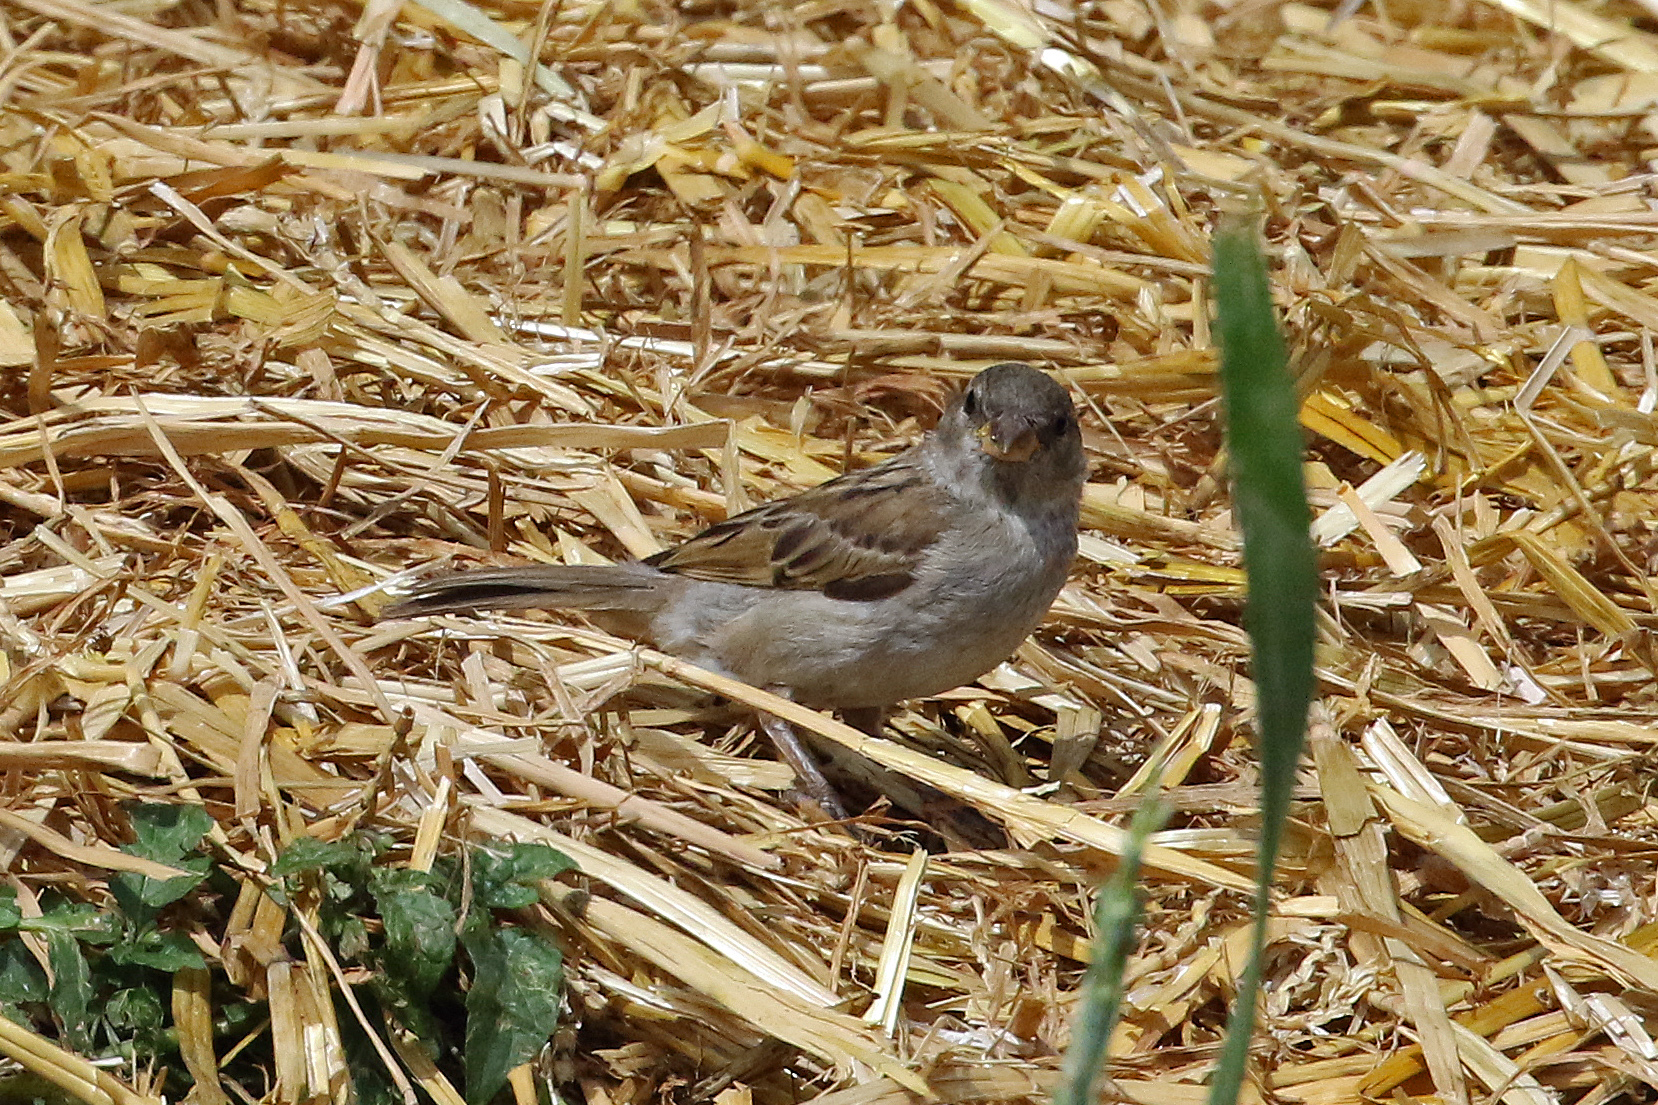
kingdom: Animalia
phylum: Chordata
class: Aves
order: Passeriformes
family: Passeridae
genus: Passer
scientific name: Passer domesticus
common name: House sparrow
